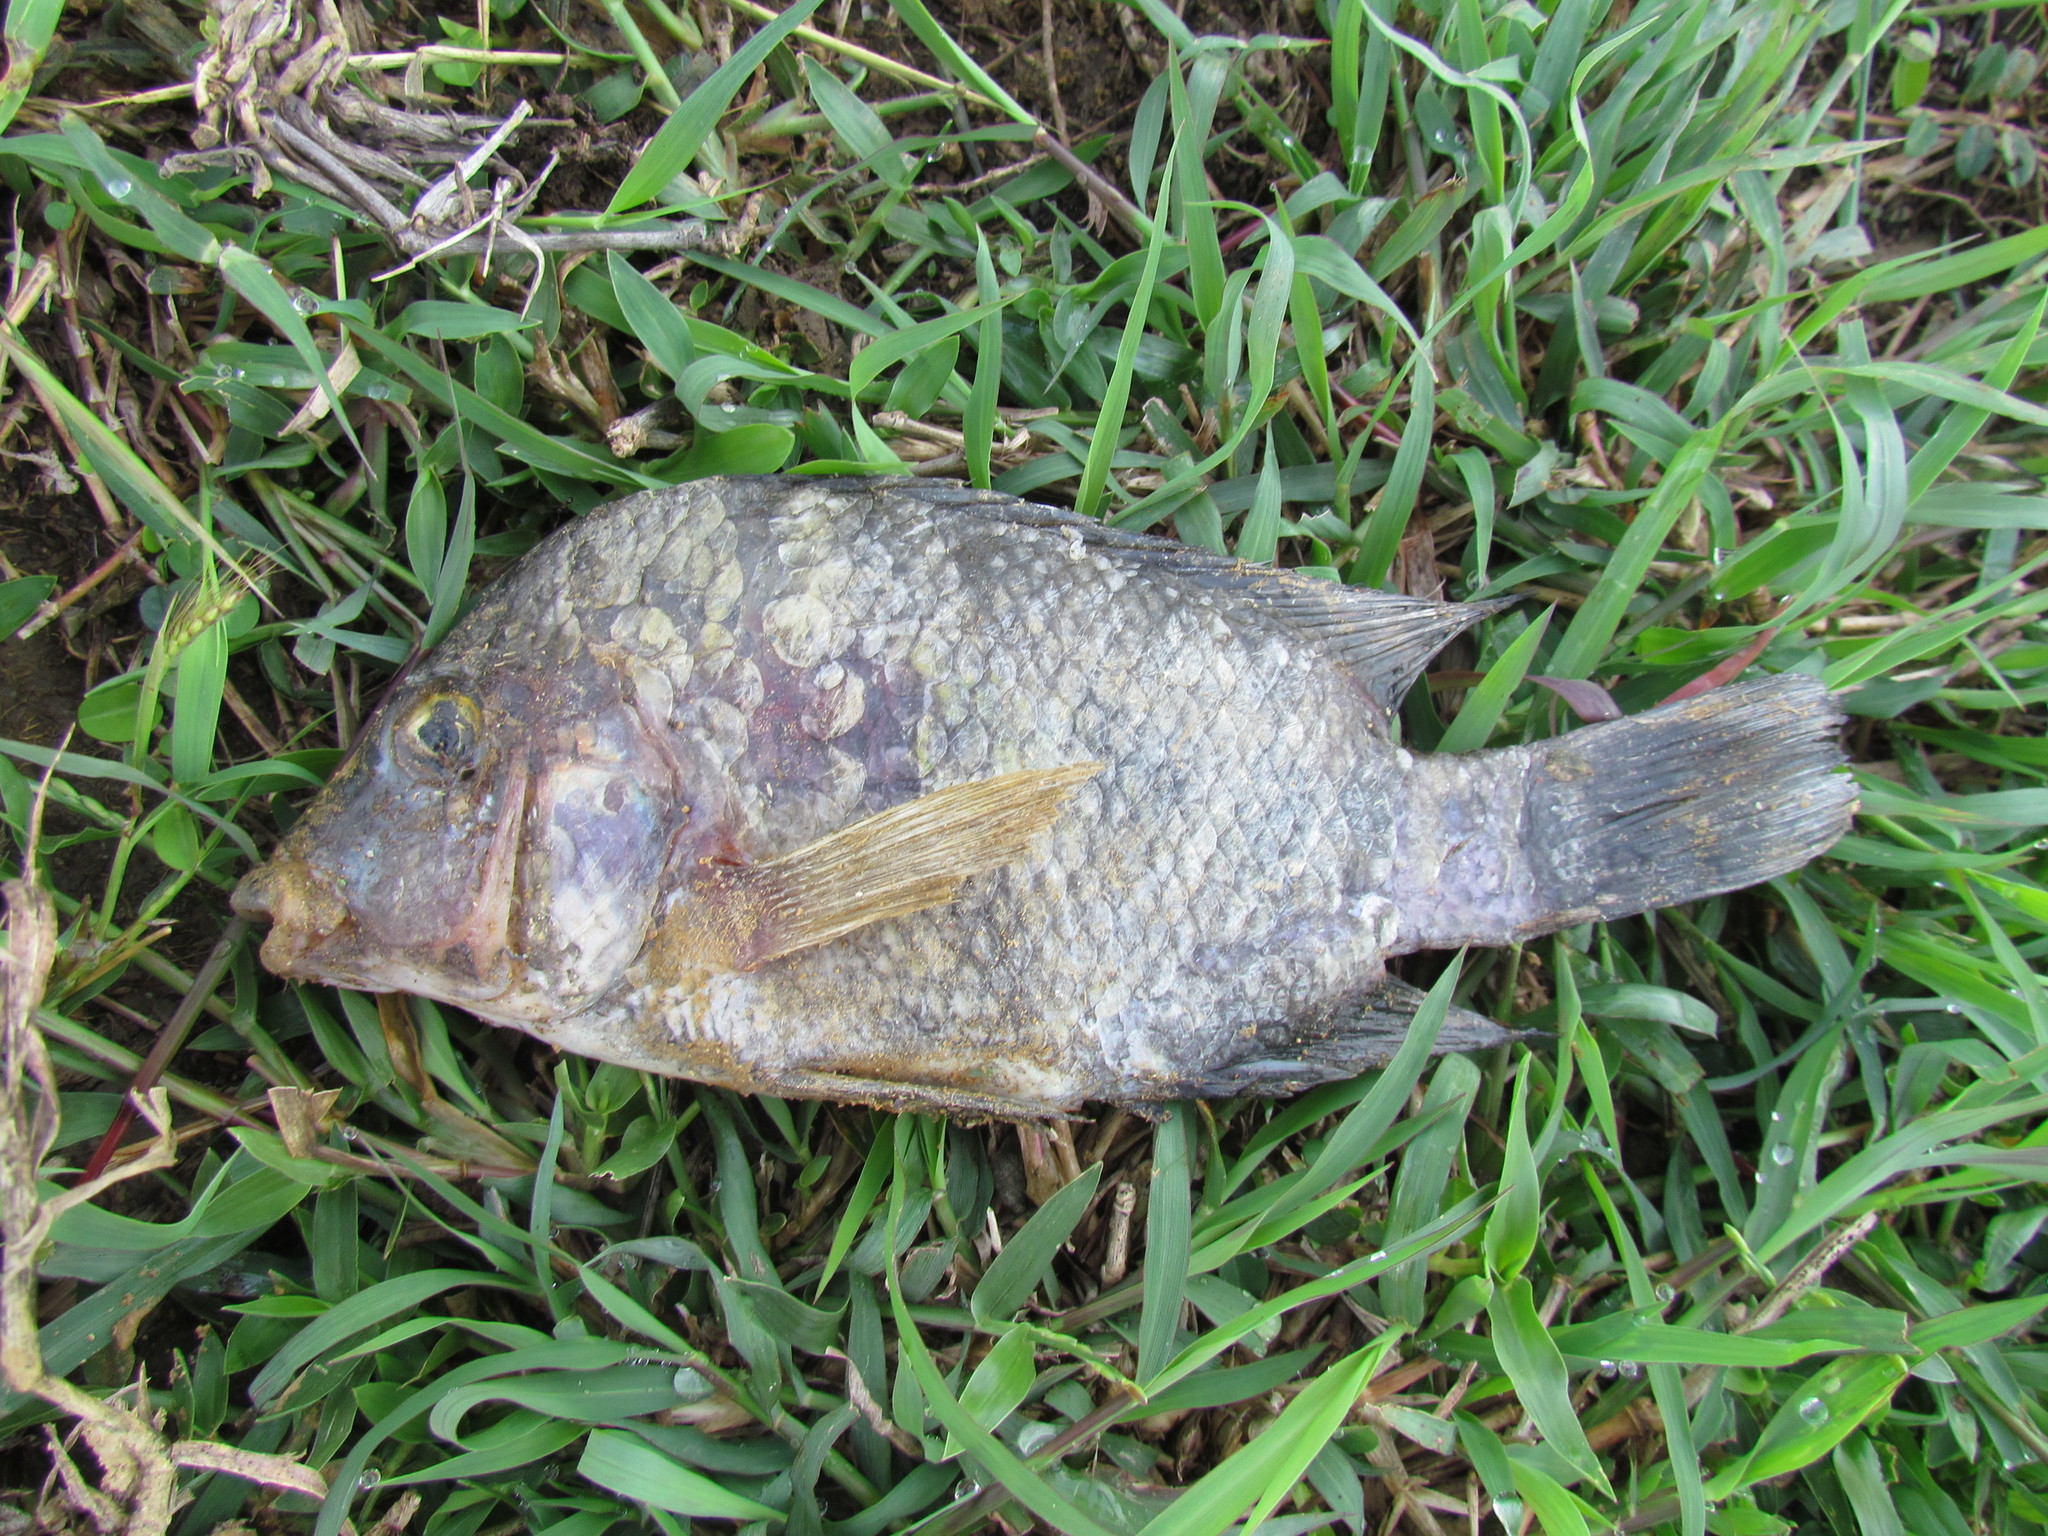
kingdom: Animalia
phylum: Chordata
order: Perciformes
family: Cichlidae
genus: Astatheros
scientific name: Astatheros macracanthus
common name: Blackthroat cichlid
